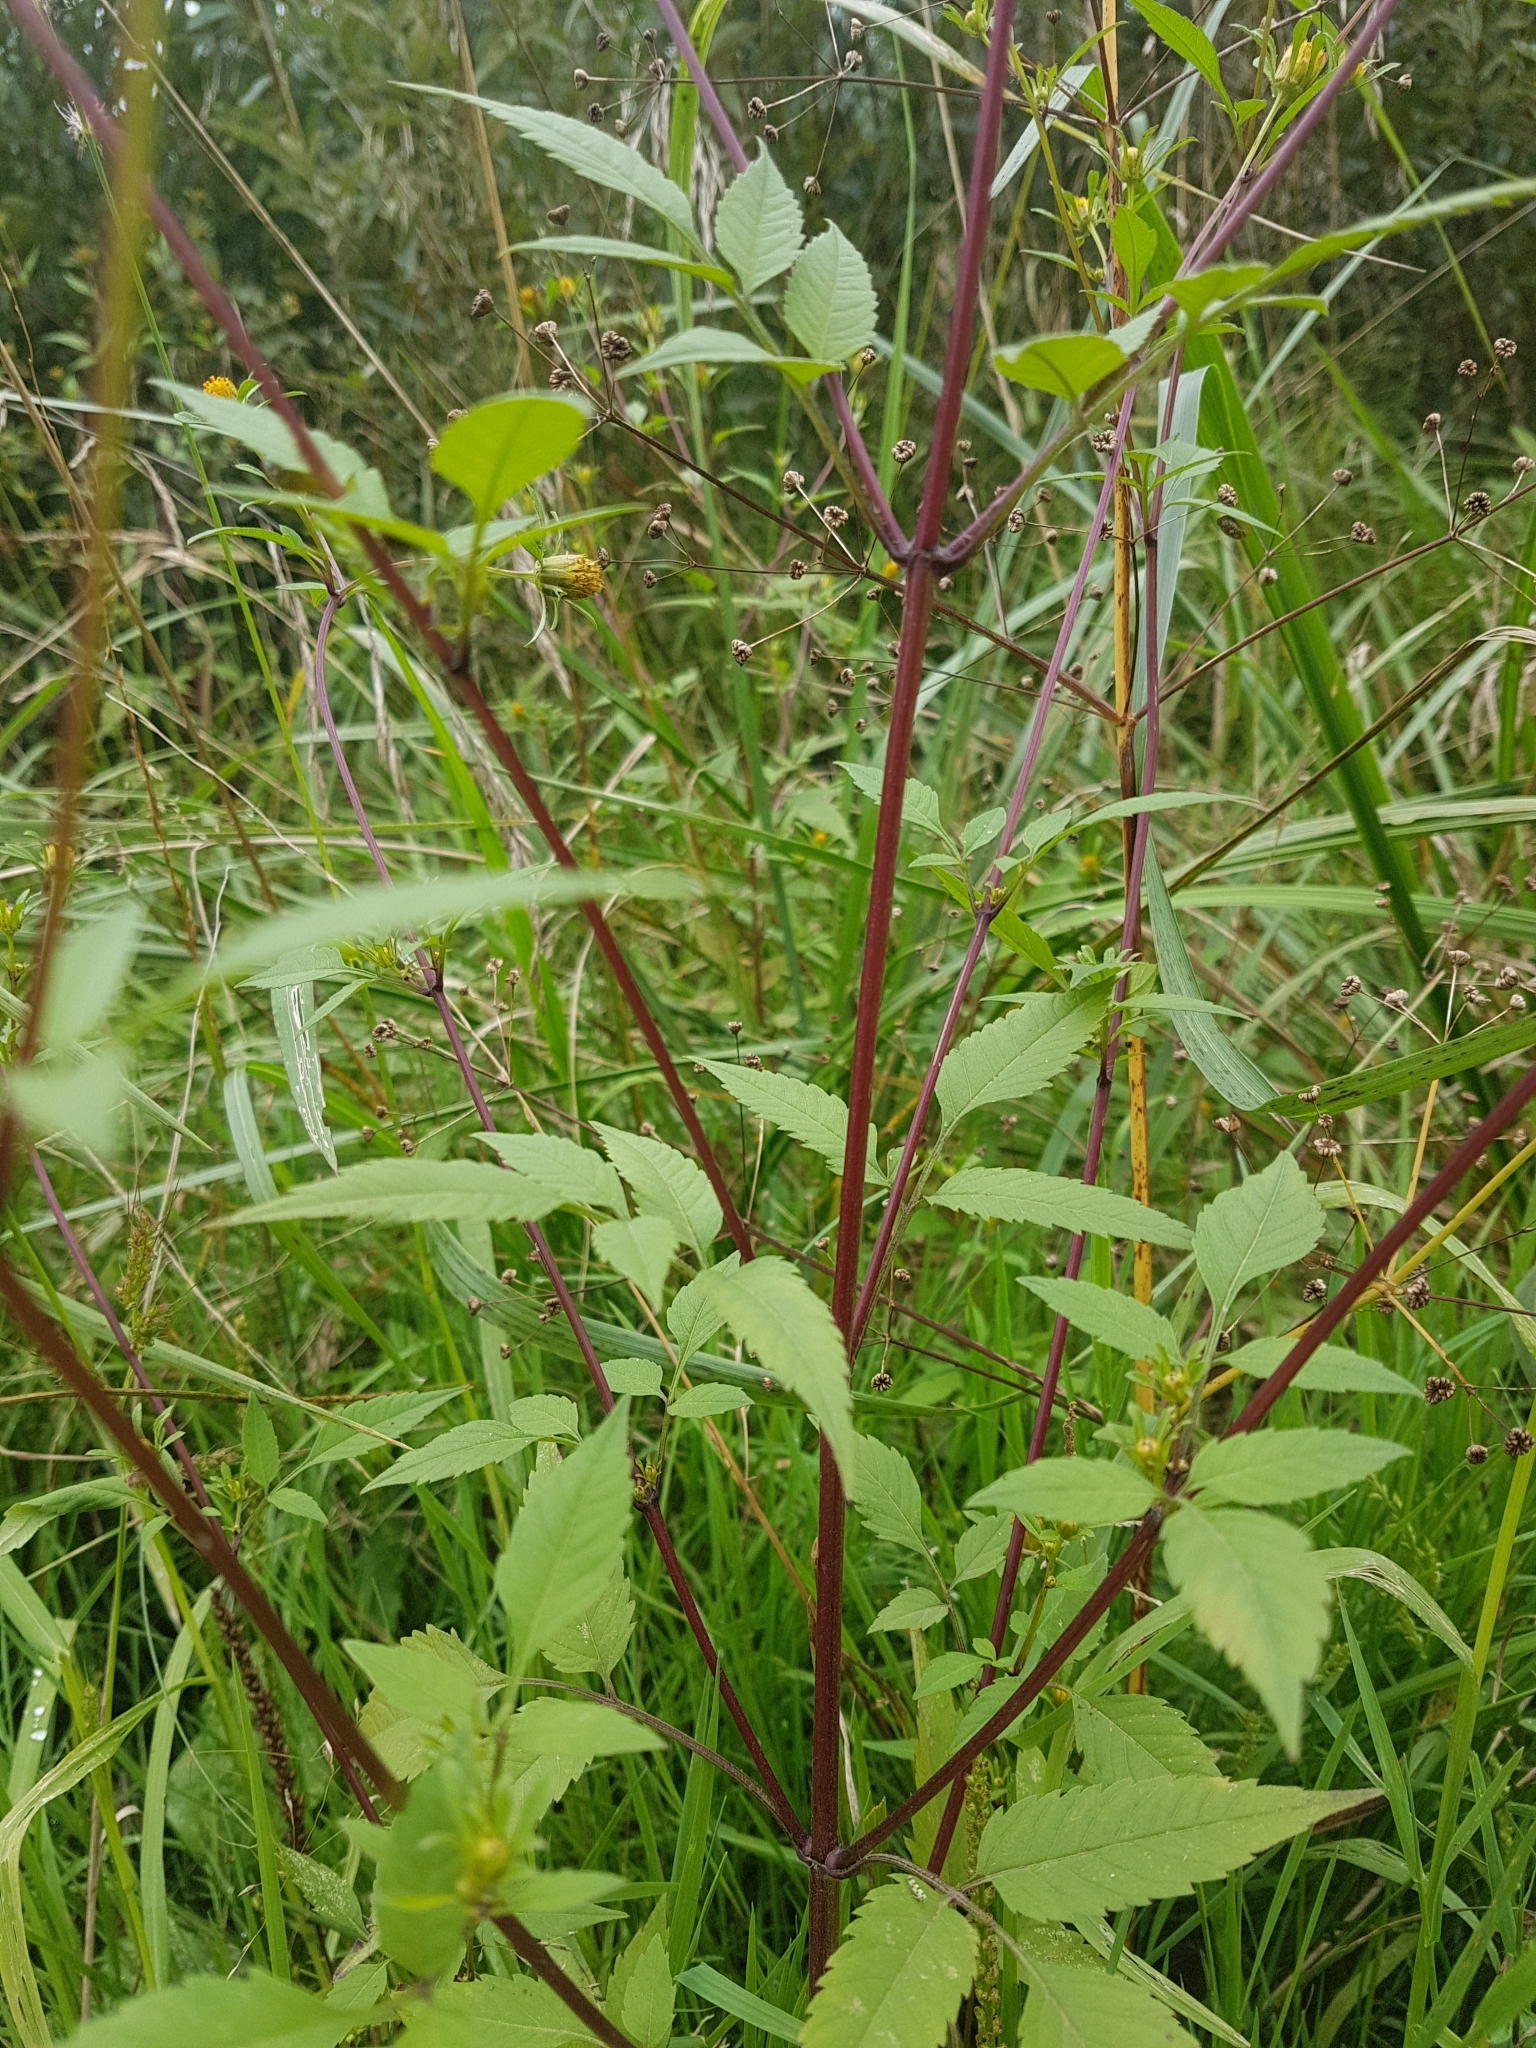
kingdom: Plantae
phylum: Tracheophyta
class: Magnoliopsida
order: Asterales
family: Asteraceae
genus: Bidens
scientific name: Bidens frondosa
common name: Beggarticks
